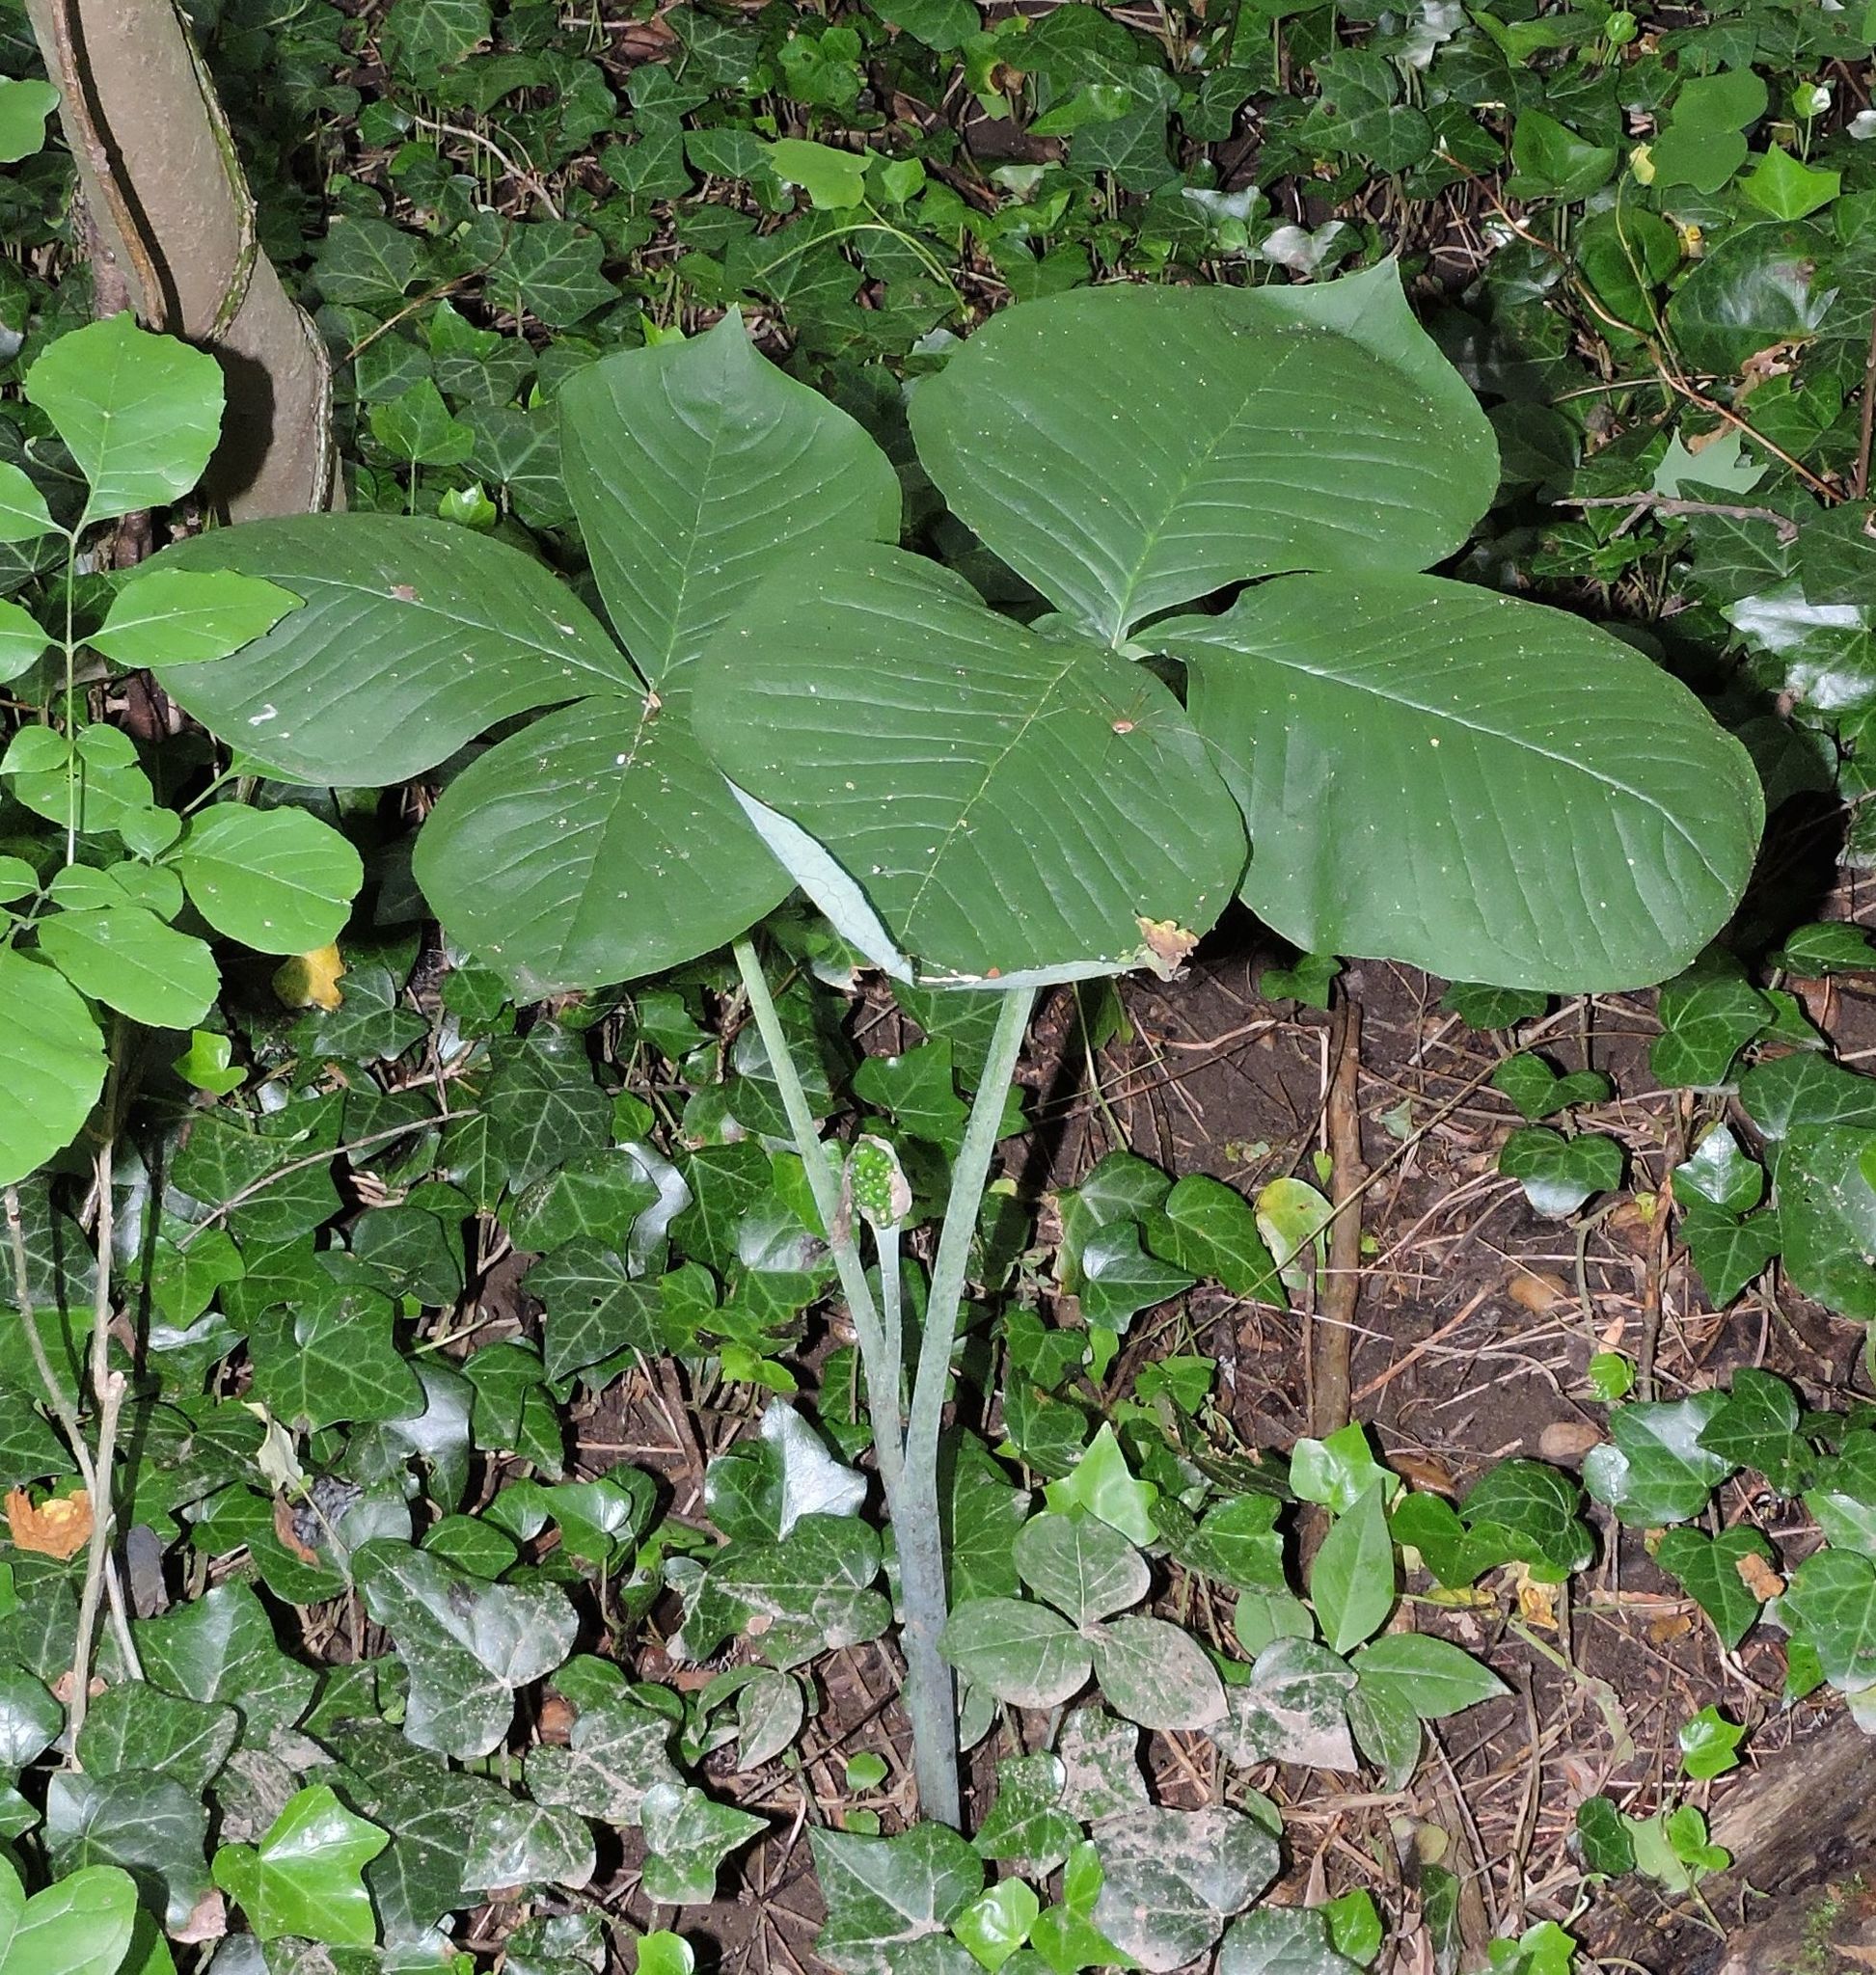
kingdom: Plantae
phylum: Tracheophyta
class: Liliopsida
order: Alismatales
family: Araceae
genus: Arisaema
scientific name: Arisaema triphyllum
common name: Jack-in-the-pulpit
